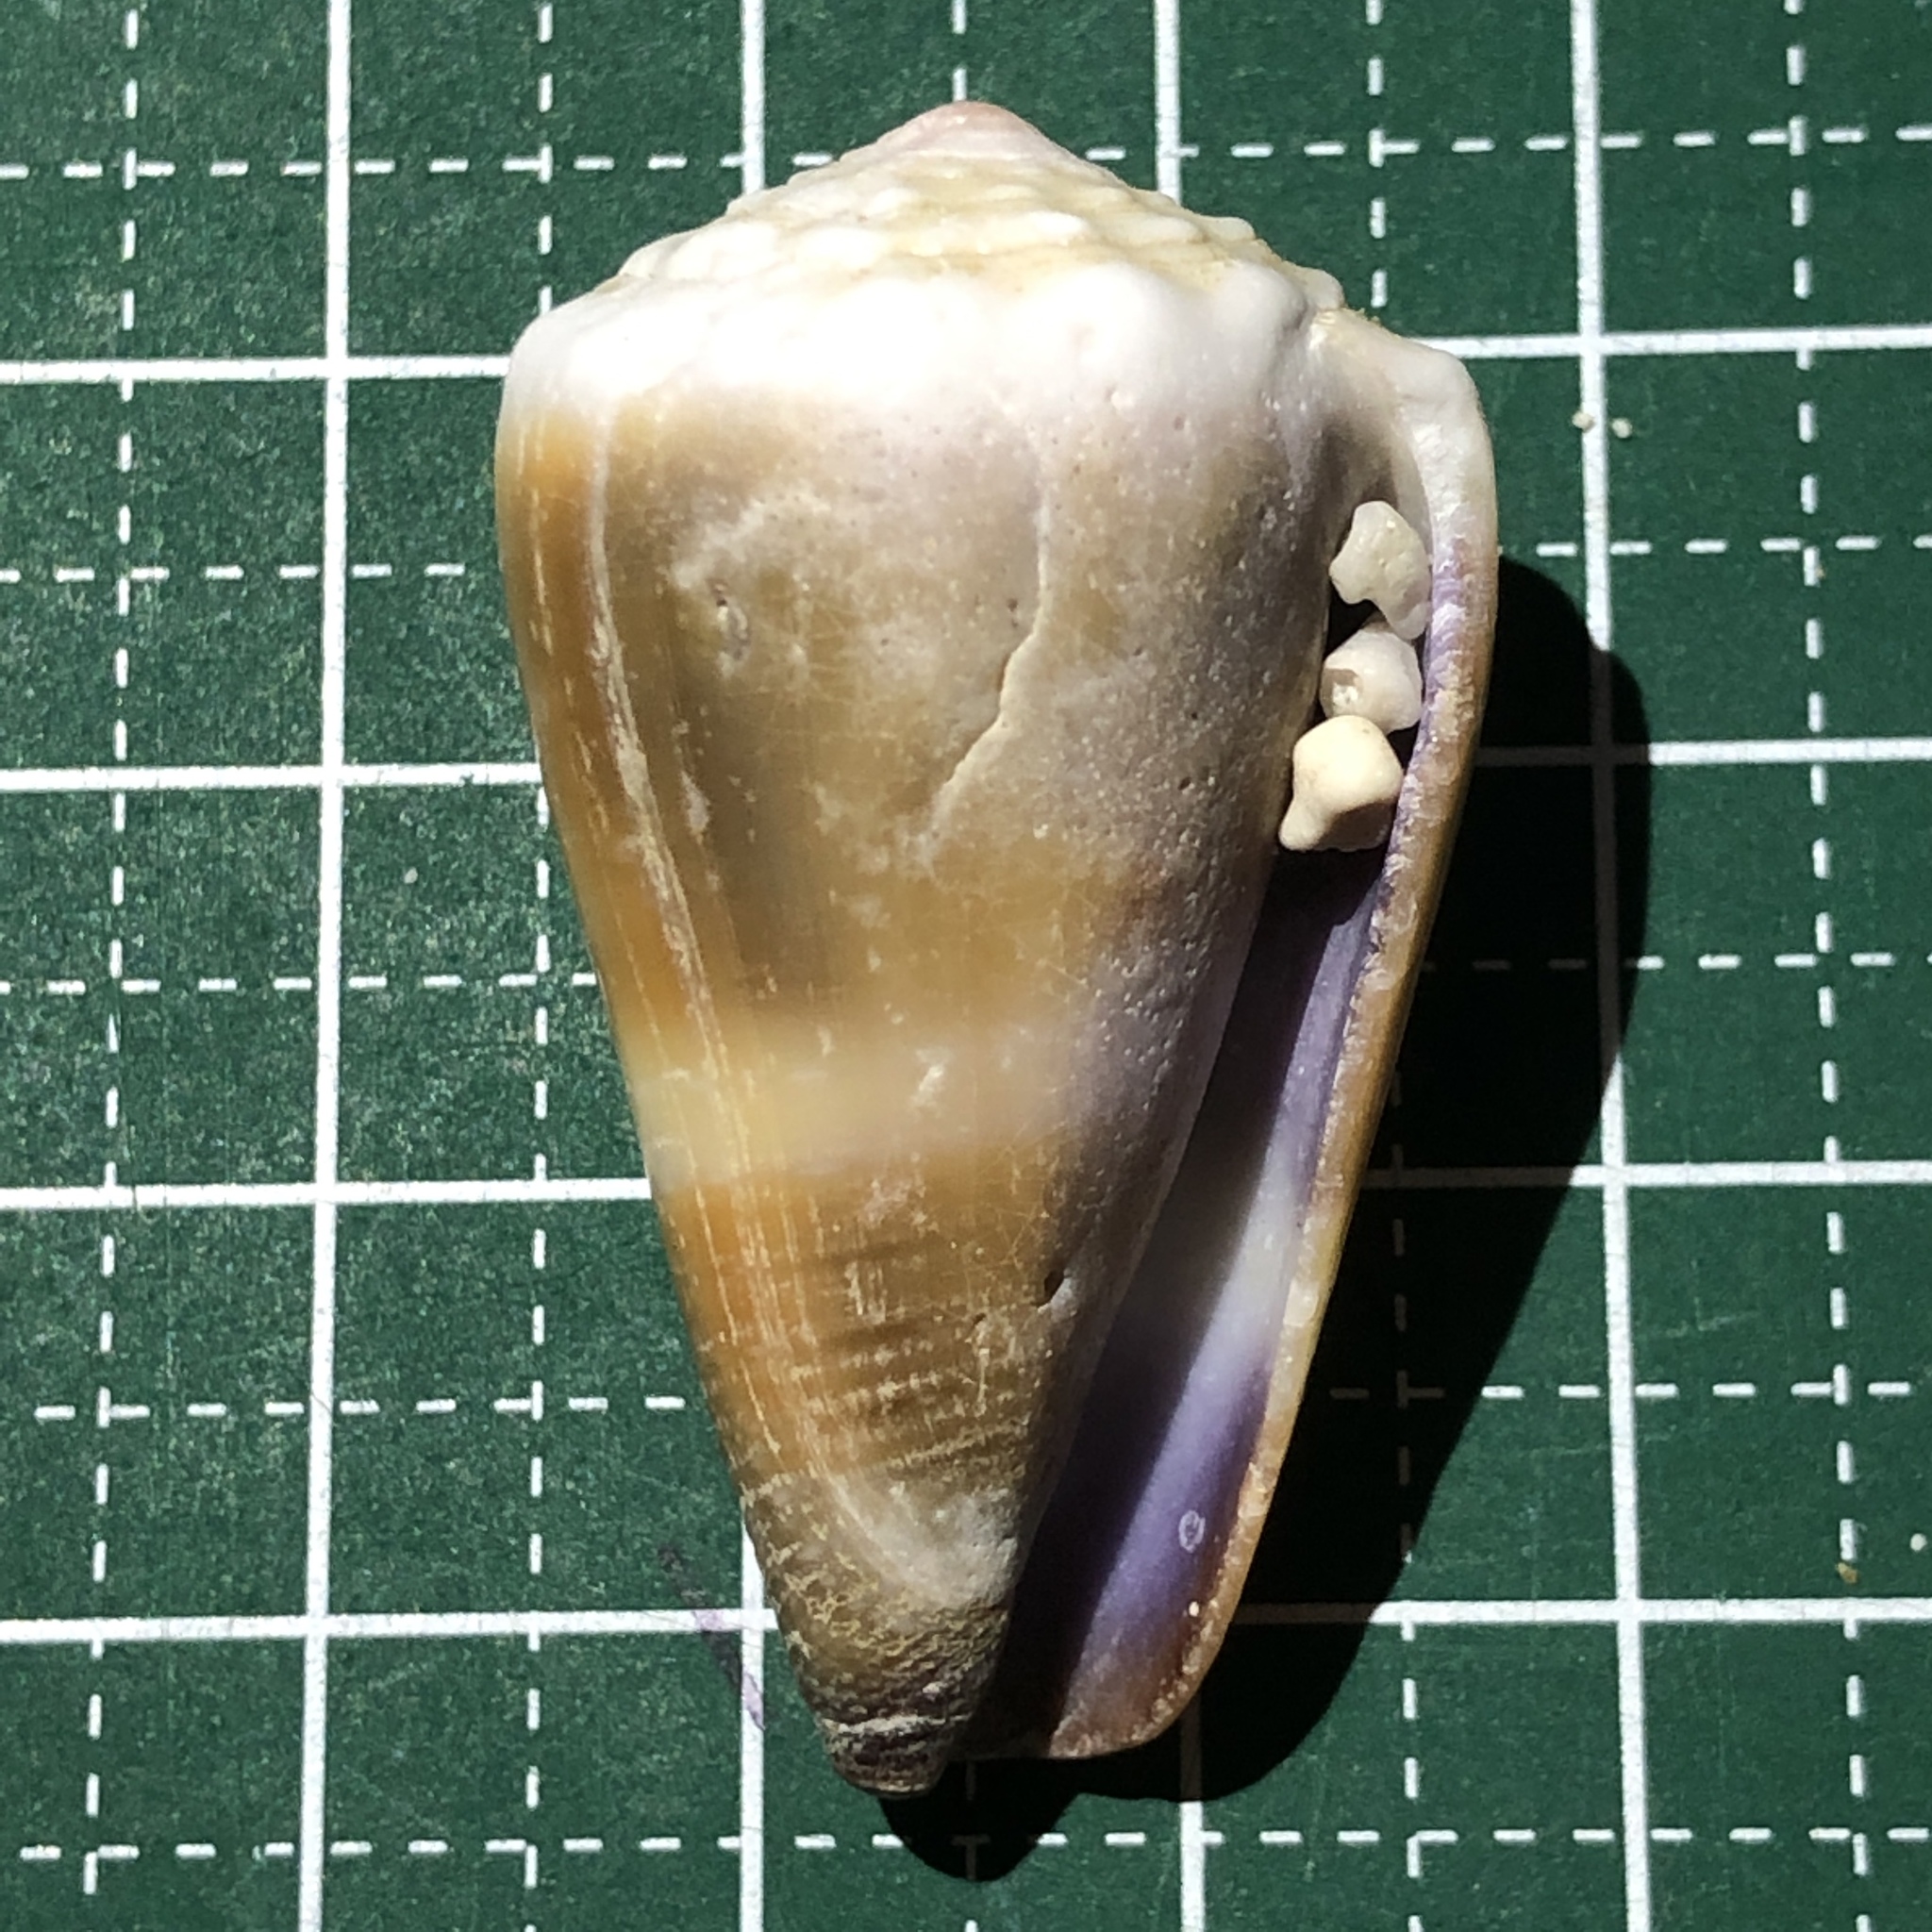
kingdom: Animalia
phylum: Mollusca
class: Gastropoda
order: Neogastropoda
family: Conidae
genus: Conus
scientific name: Conus lividus
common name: Livid cone
